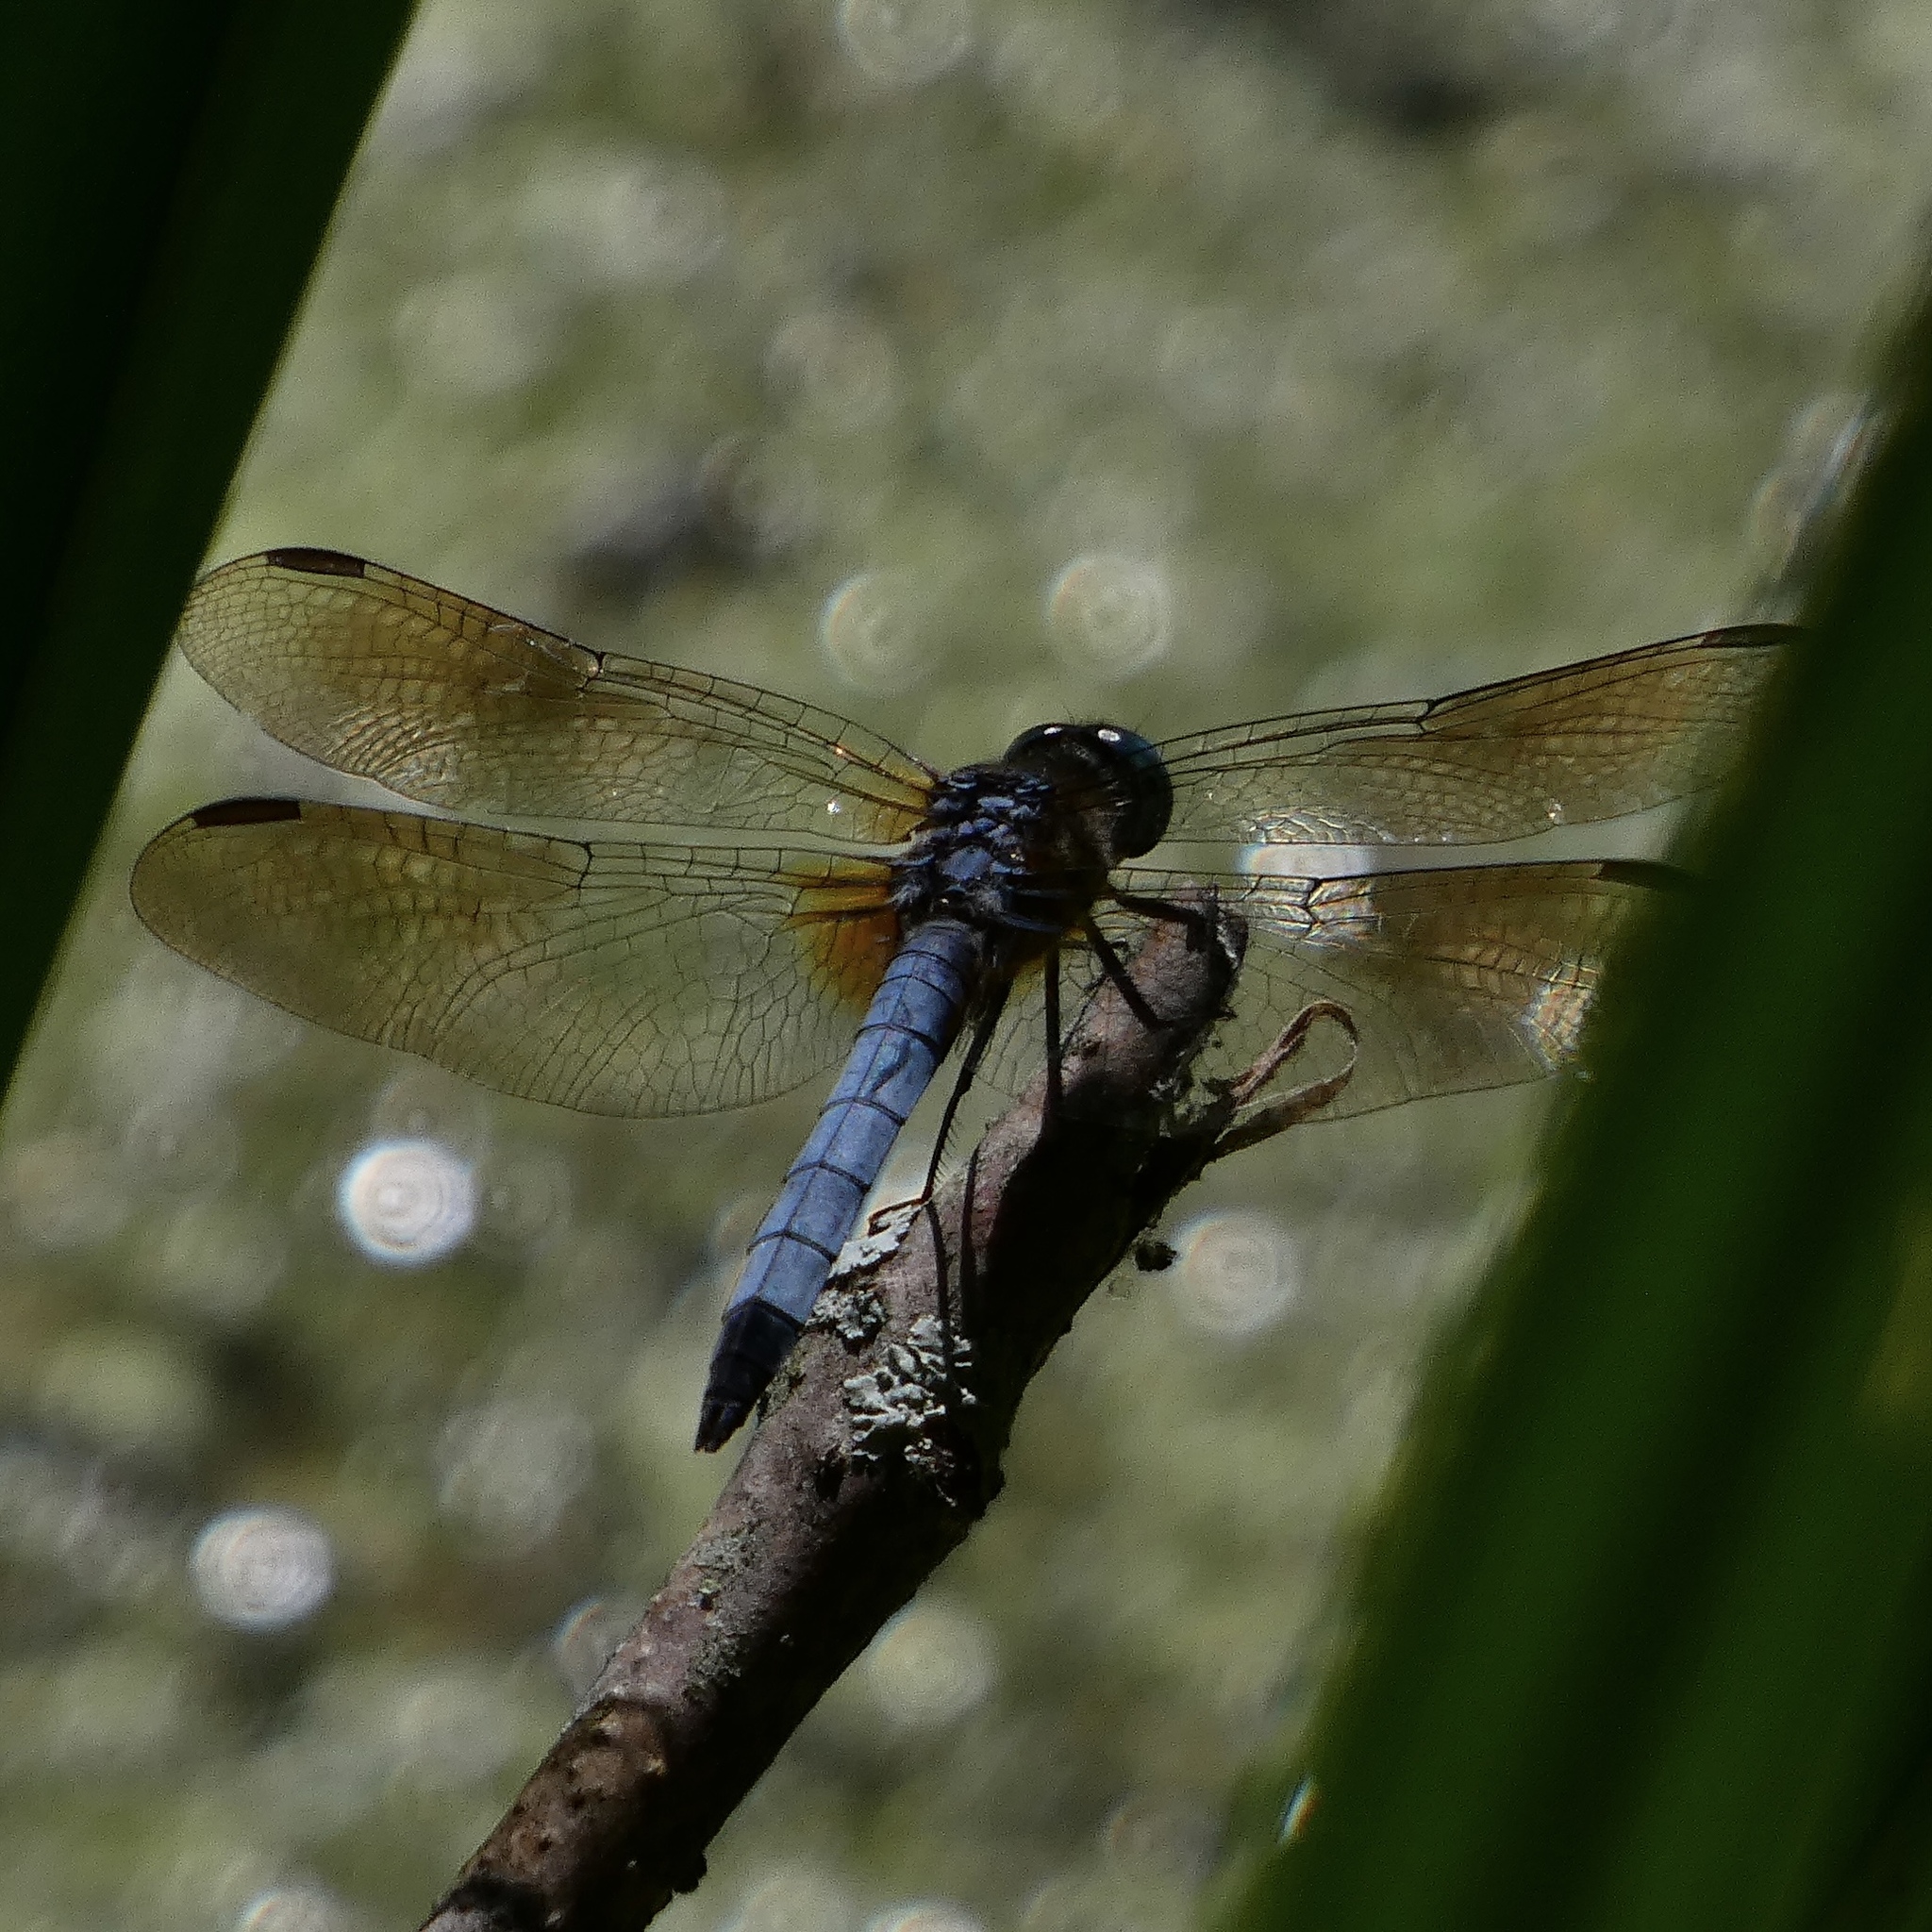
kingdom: Animalia
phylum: Arthropoda
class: Insecta
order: Odonata
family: Libellulidae
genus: Pachydiplax
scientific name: Pachydiplax longipennis
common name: Blue dasher
